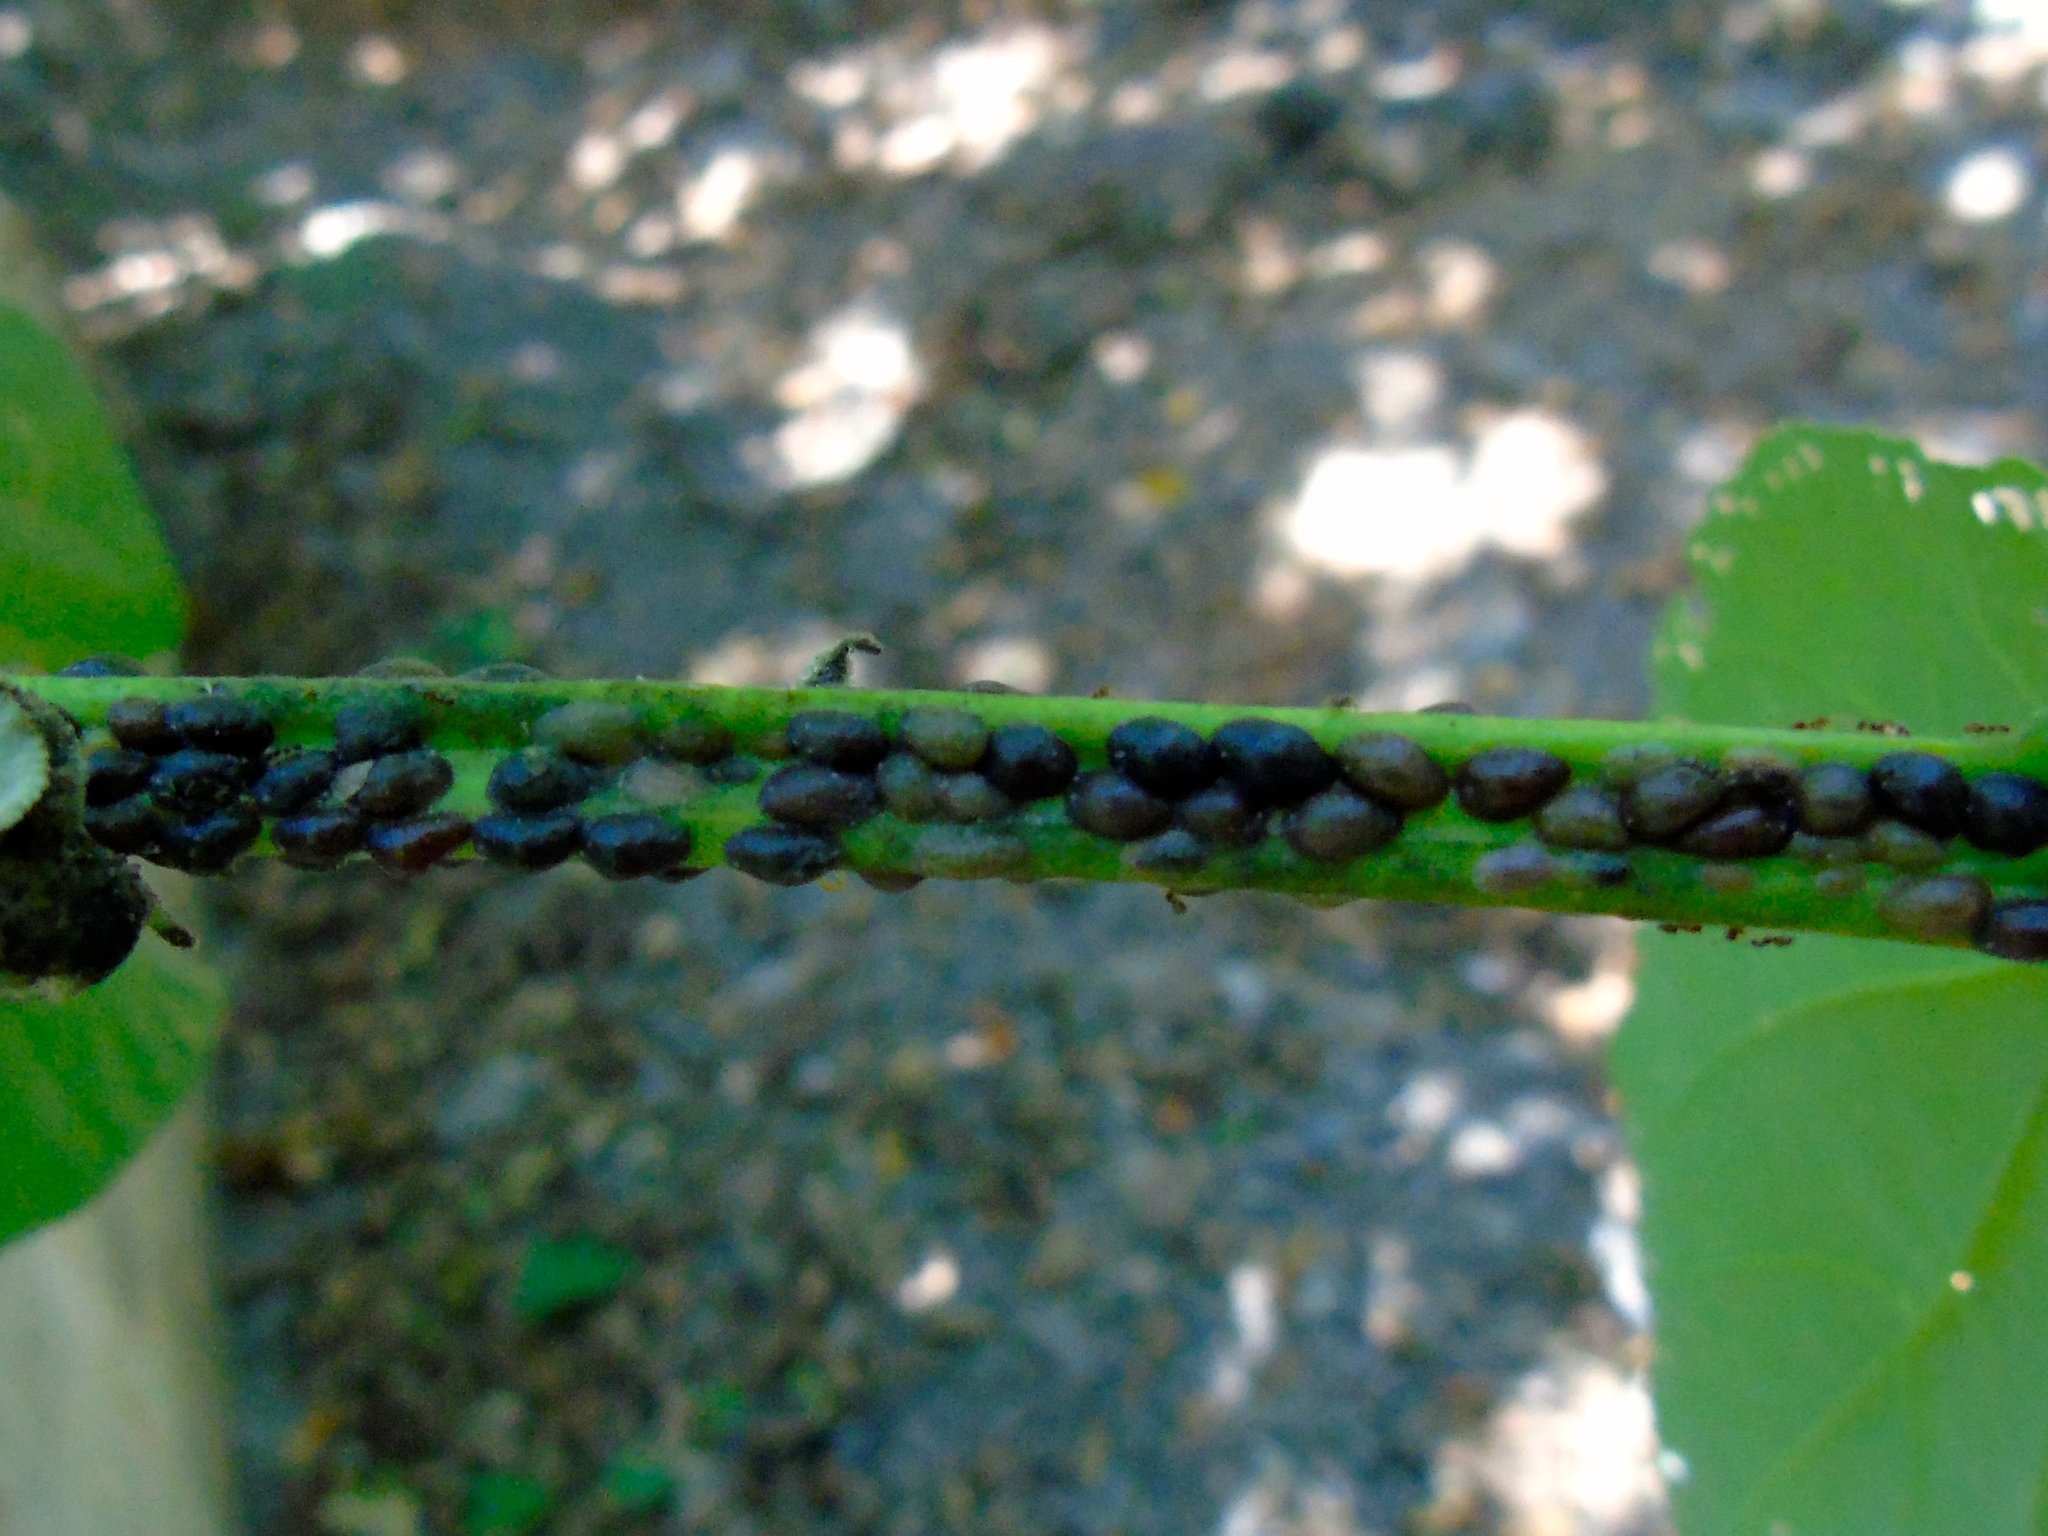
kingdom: Animalia
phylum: Arthropoda
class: Insecta
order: Hemiptera
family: Coccidae
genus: Parasaissetia
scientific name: Parasaissetia nigra
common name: Black scale
